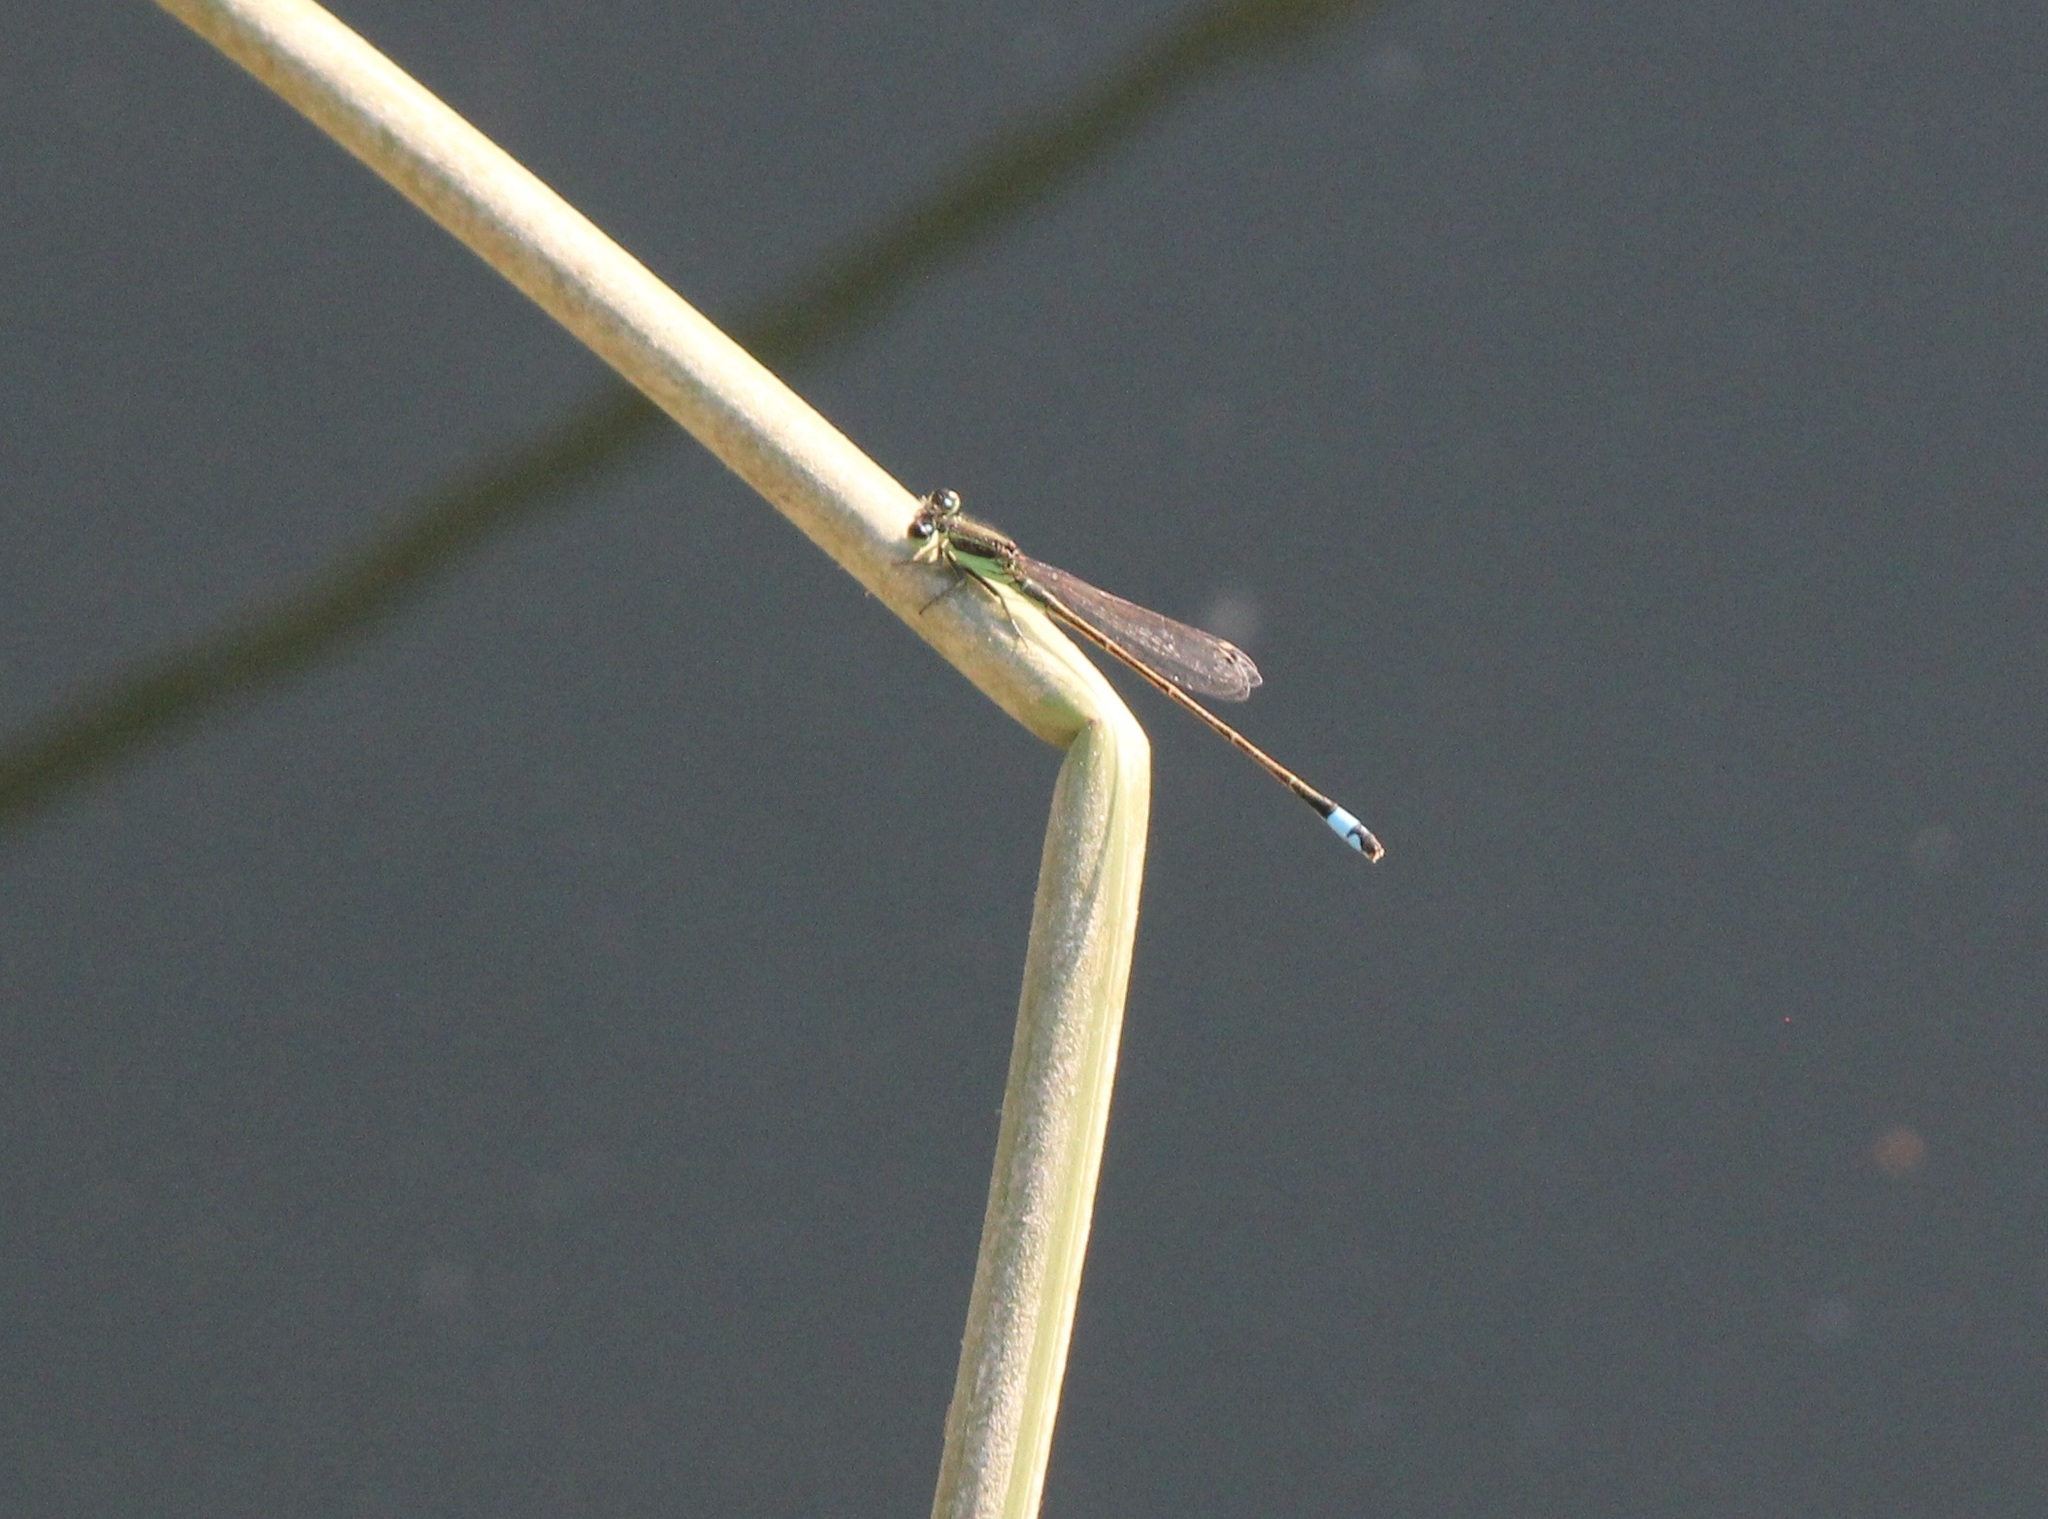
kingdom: Animalia
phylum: Arthropoda
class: Insecta
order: Odonata
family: Coenagrionidae
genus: Ischnura
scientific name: Ischnura ramburii
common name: Rambur's forktail
